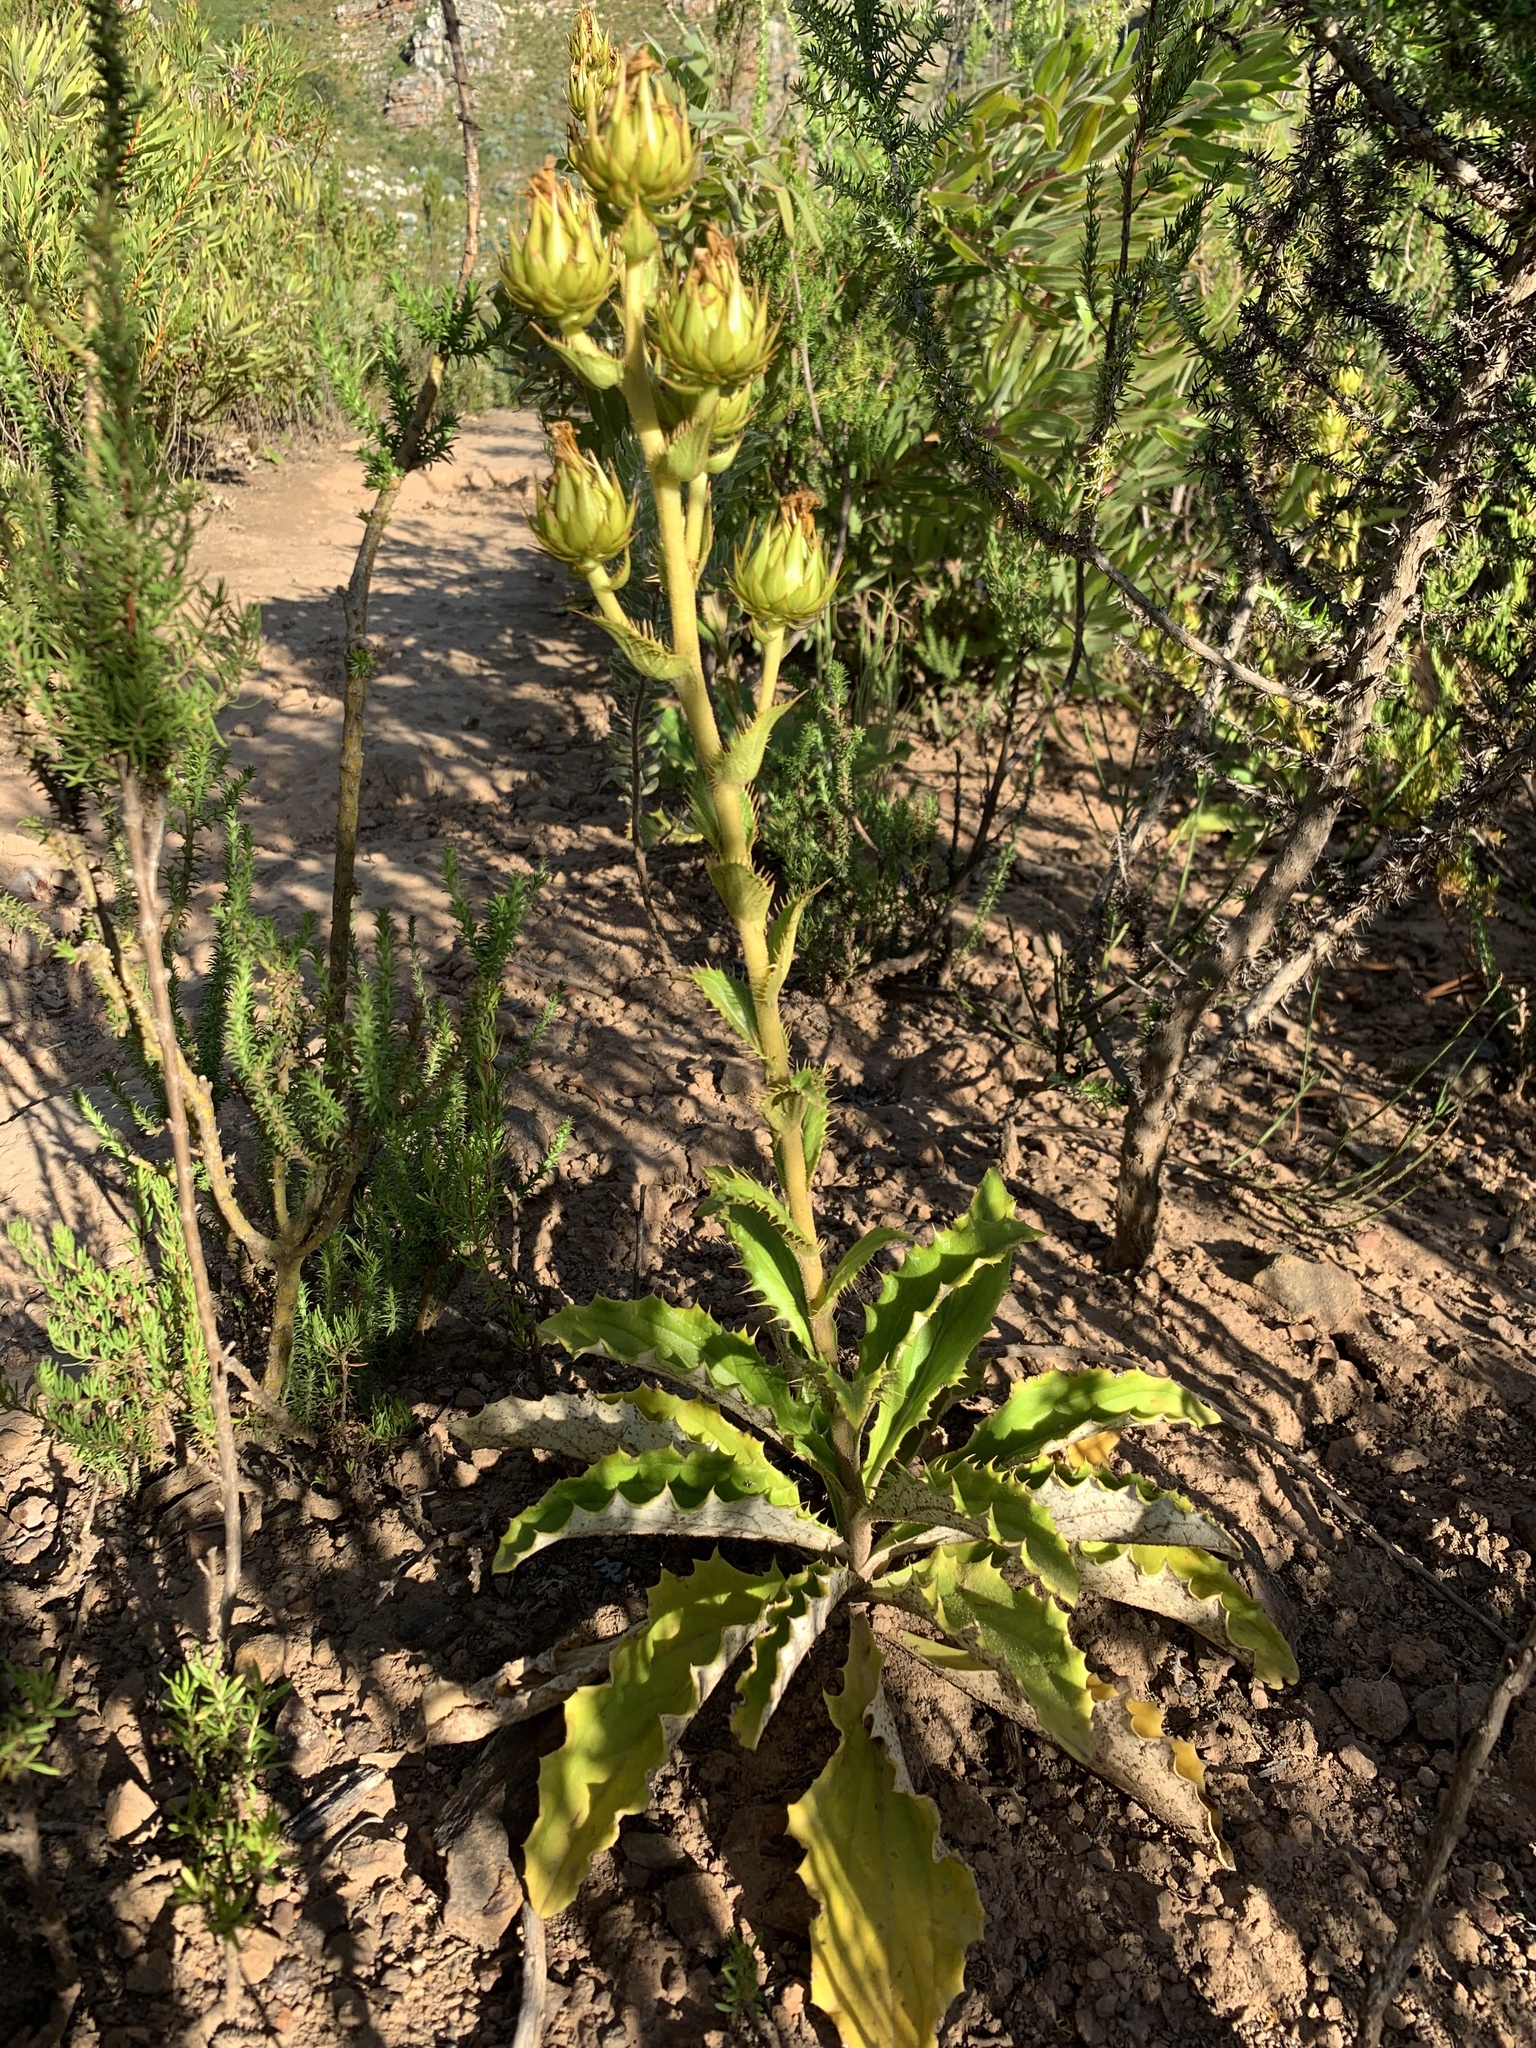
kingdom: Plantae
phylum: Tracheophyta
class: Magnoliopsida
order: Asterales
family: Asteraceae
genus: Berkheya
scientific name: Berkheya herbacea
